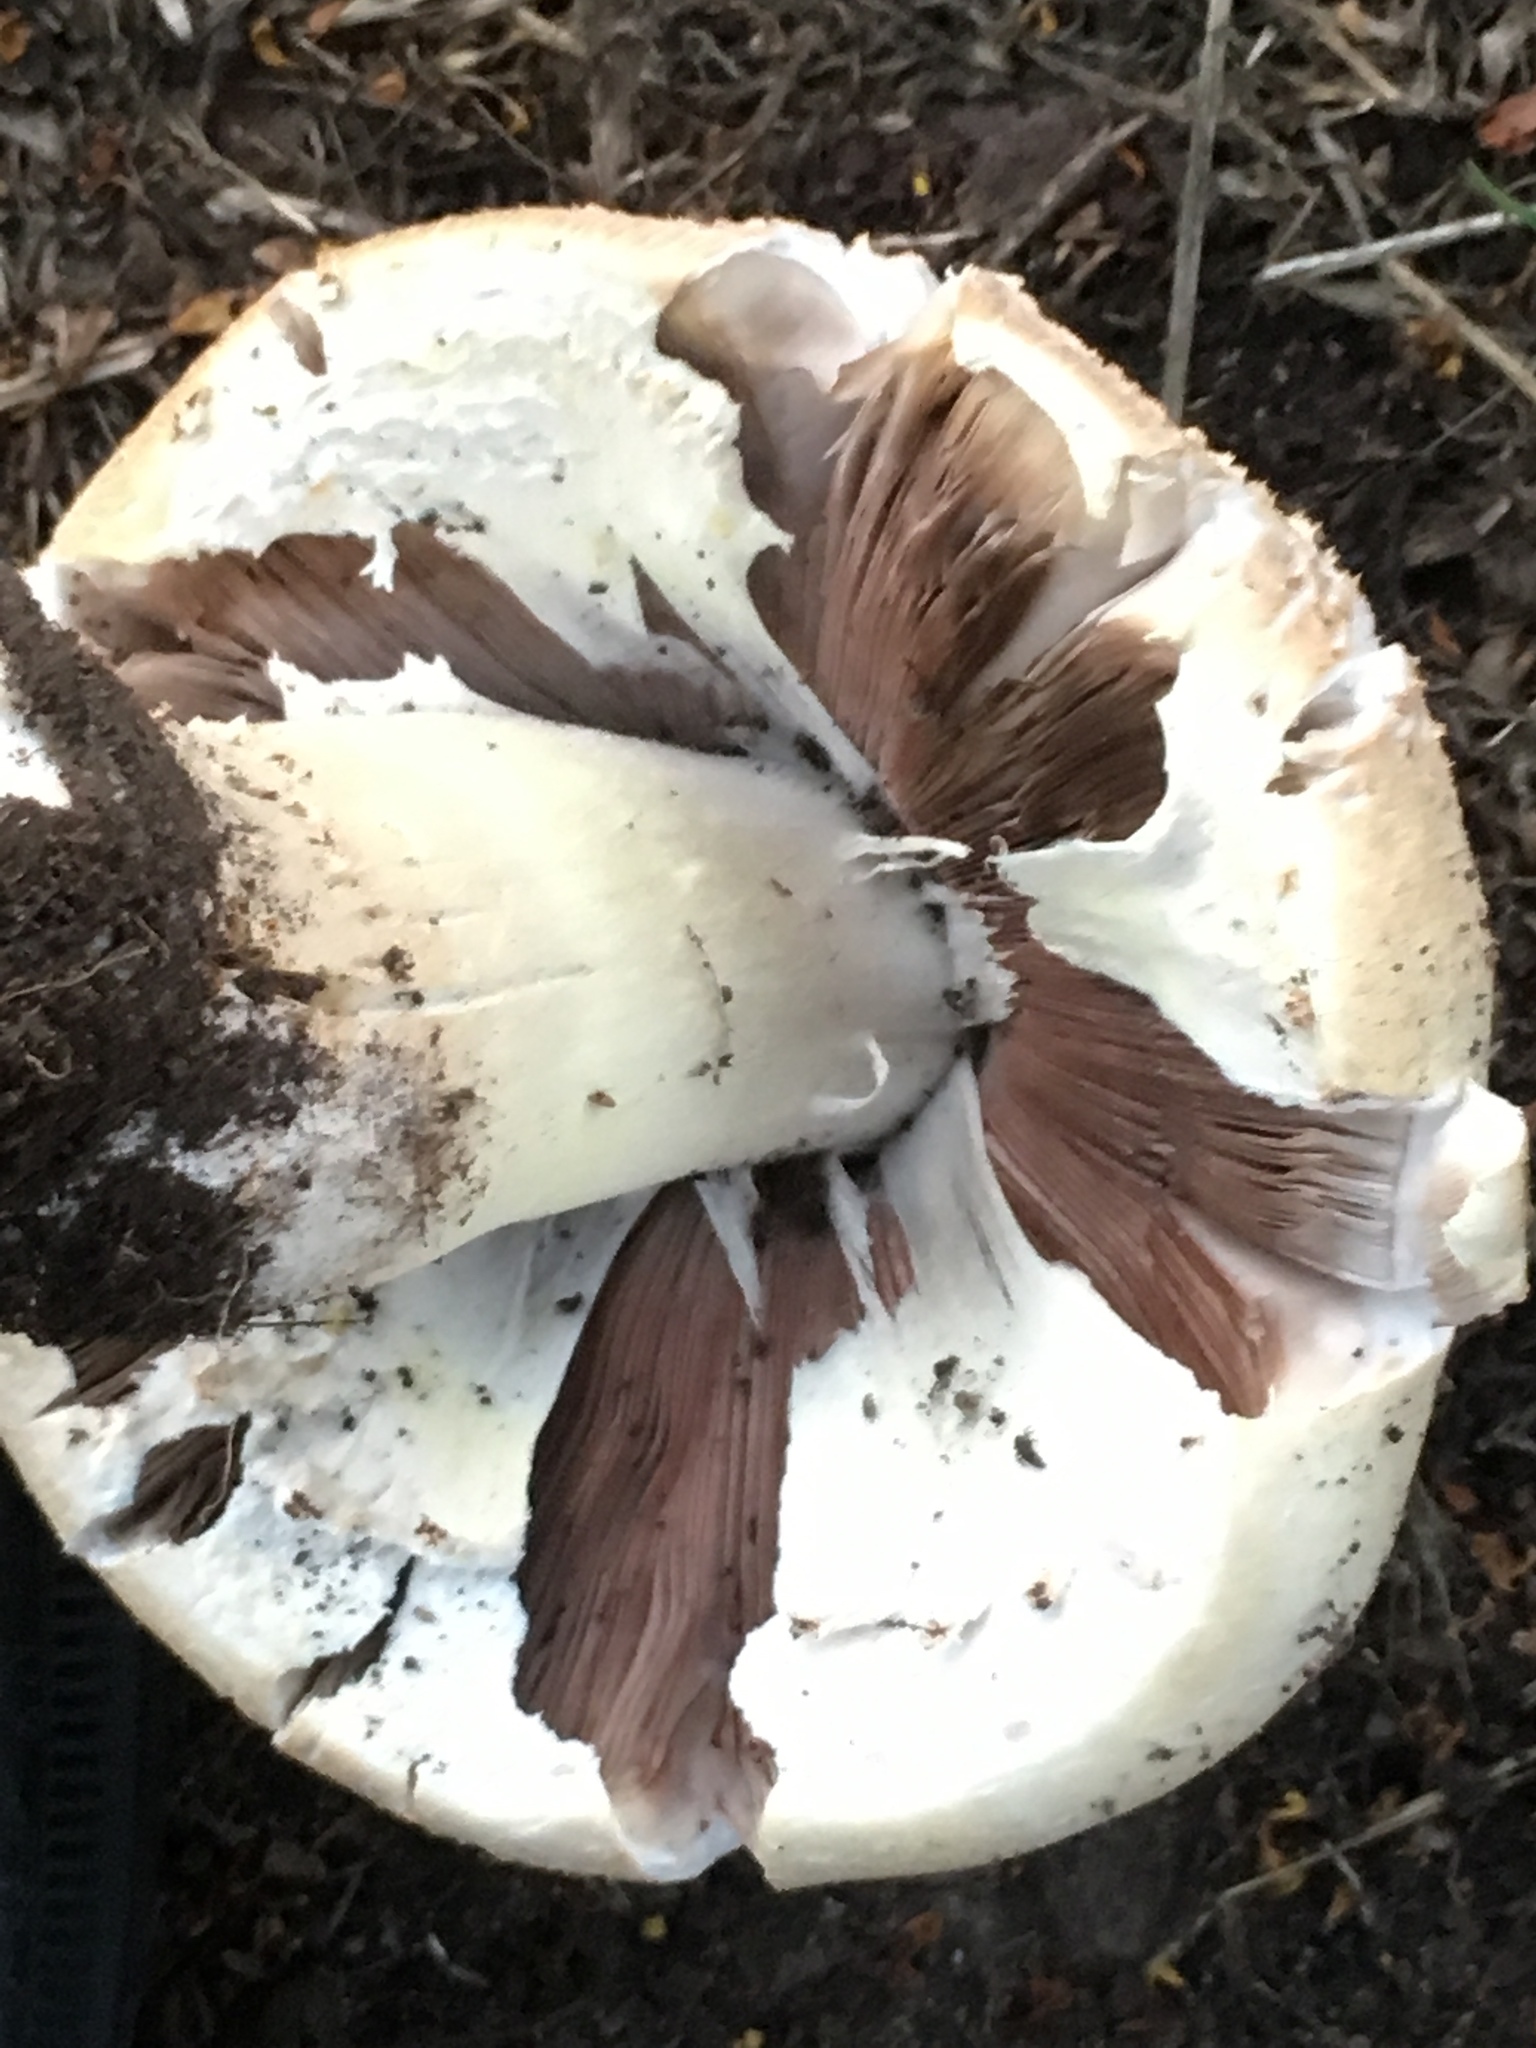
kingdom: Fungi
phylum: Basidiomycota
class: Agaricomycetes
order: Agaricales
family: Agaricaceae
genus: Agaricus
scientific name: Agaricus urinascens
